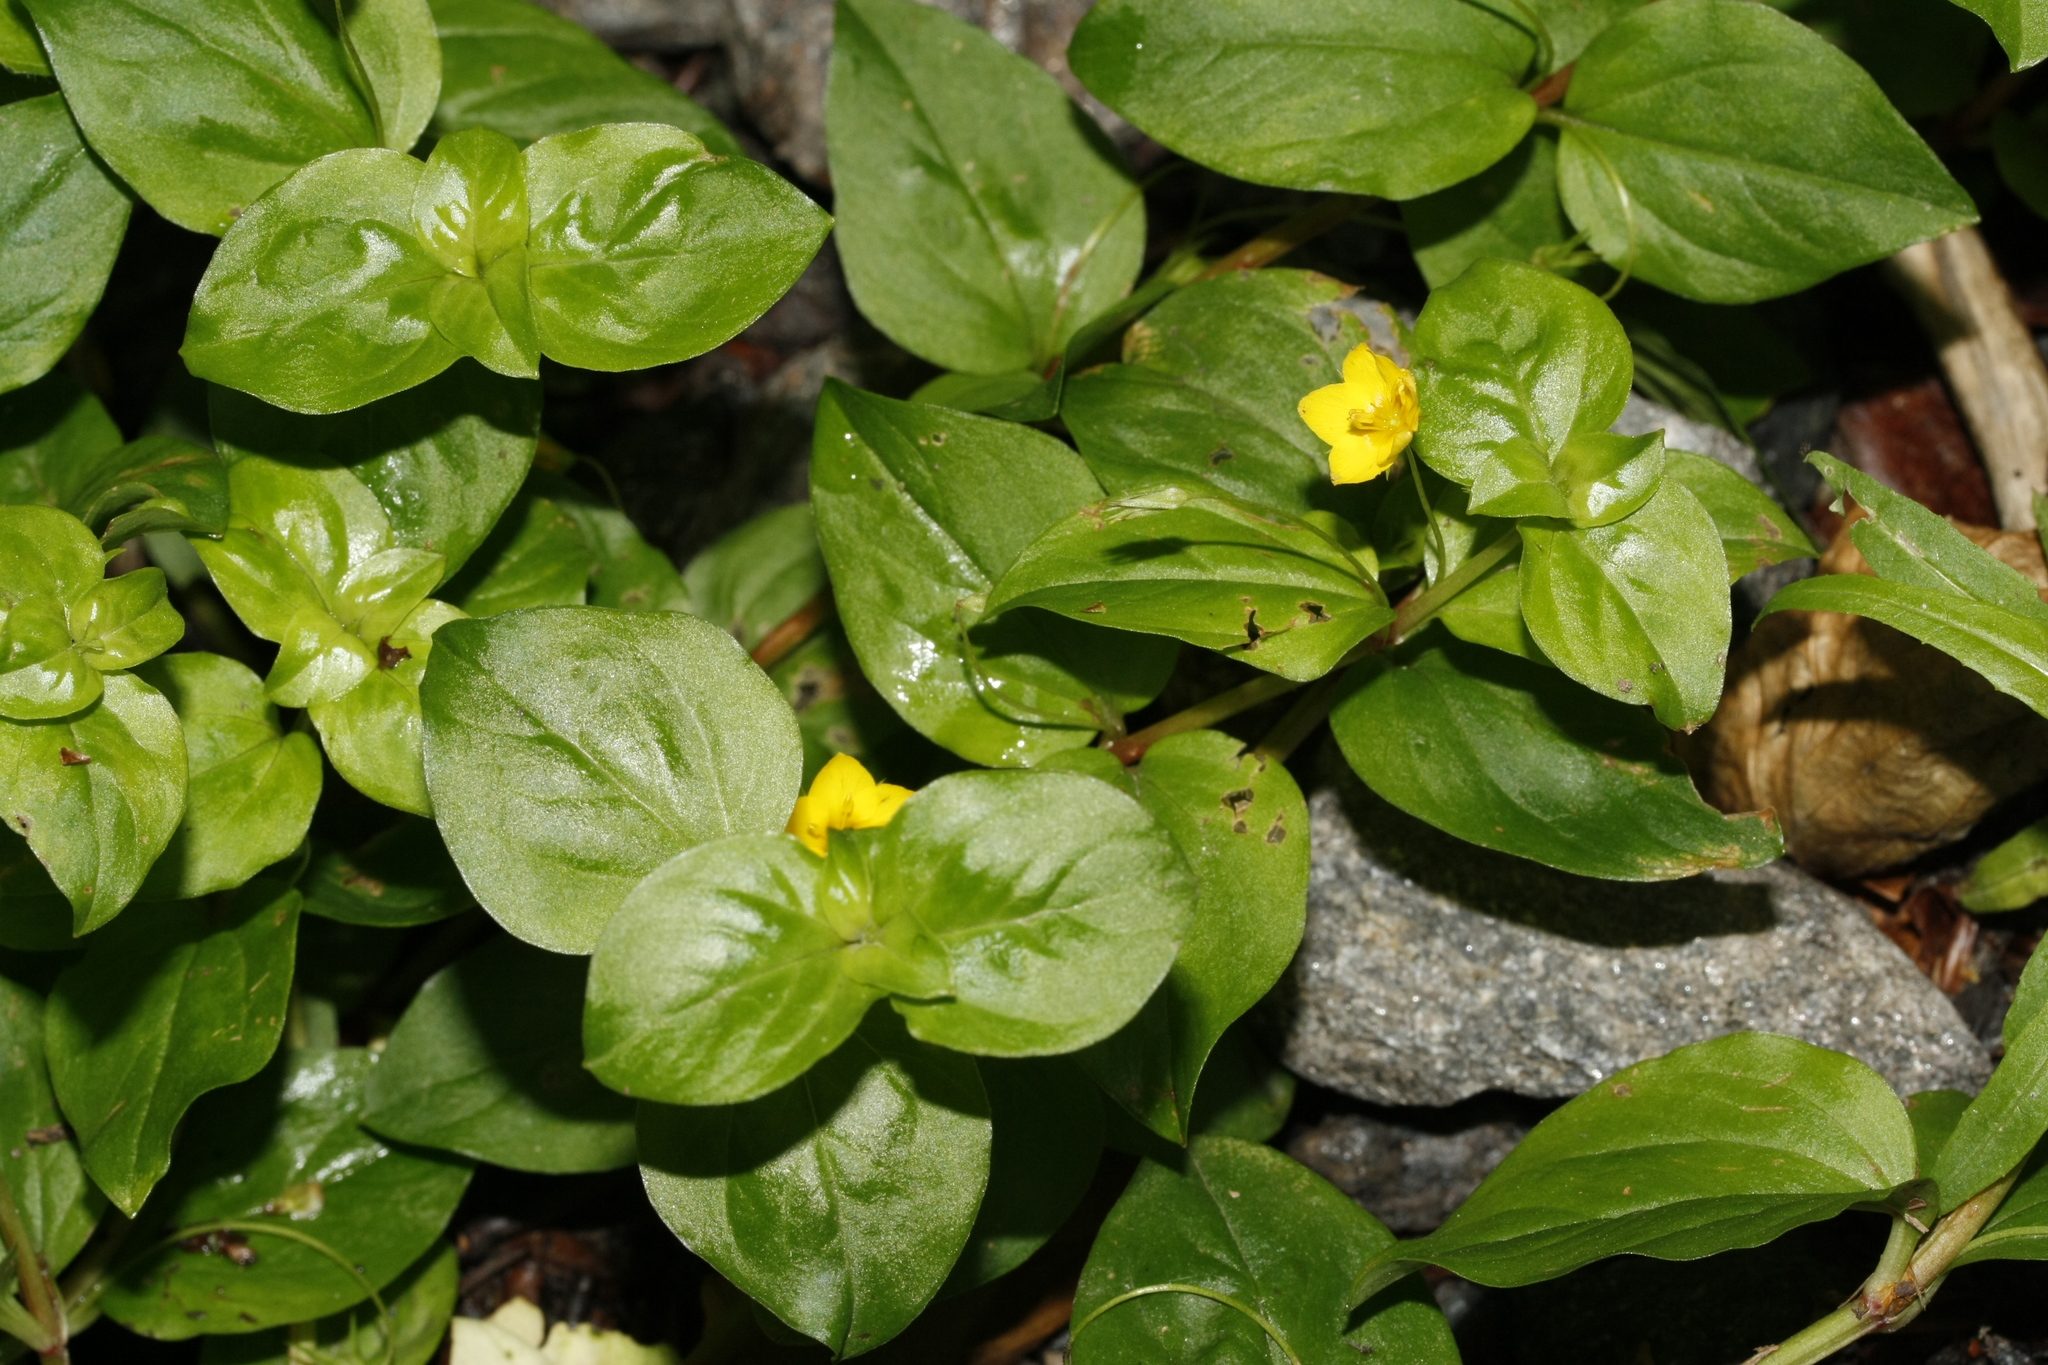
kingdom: Plantae
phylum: Tracheophyta
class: Magnoliopsida
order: Ericales
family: Primulaceae
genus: Lysimachia
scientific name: Lysimachia nemorum
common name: Yellow pimpernel
